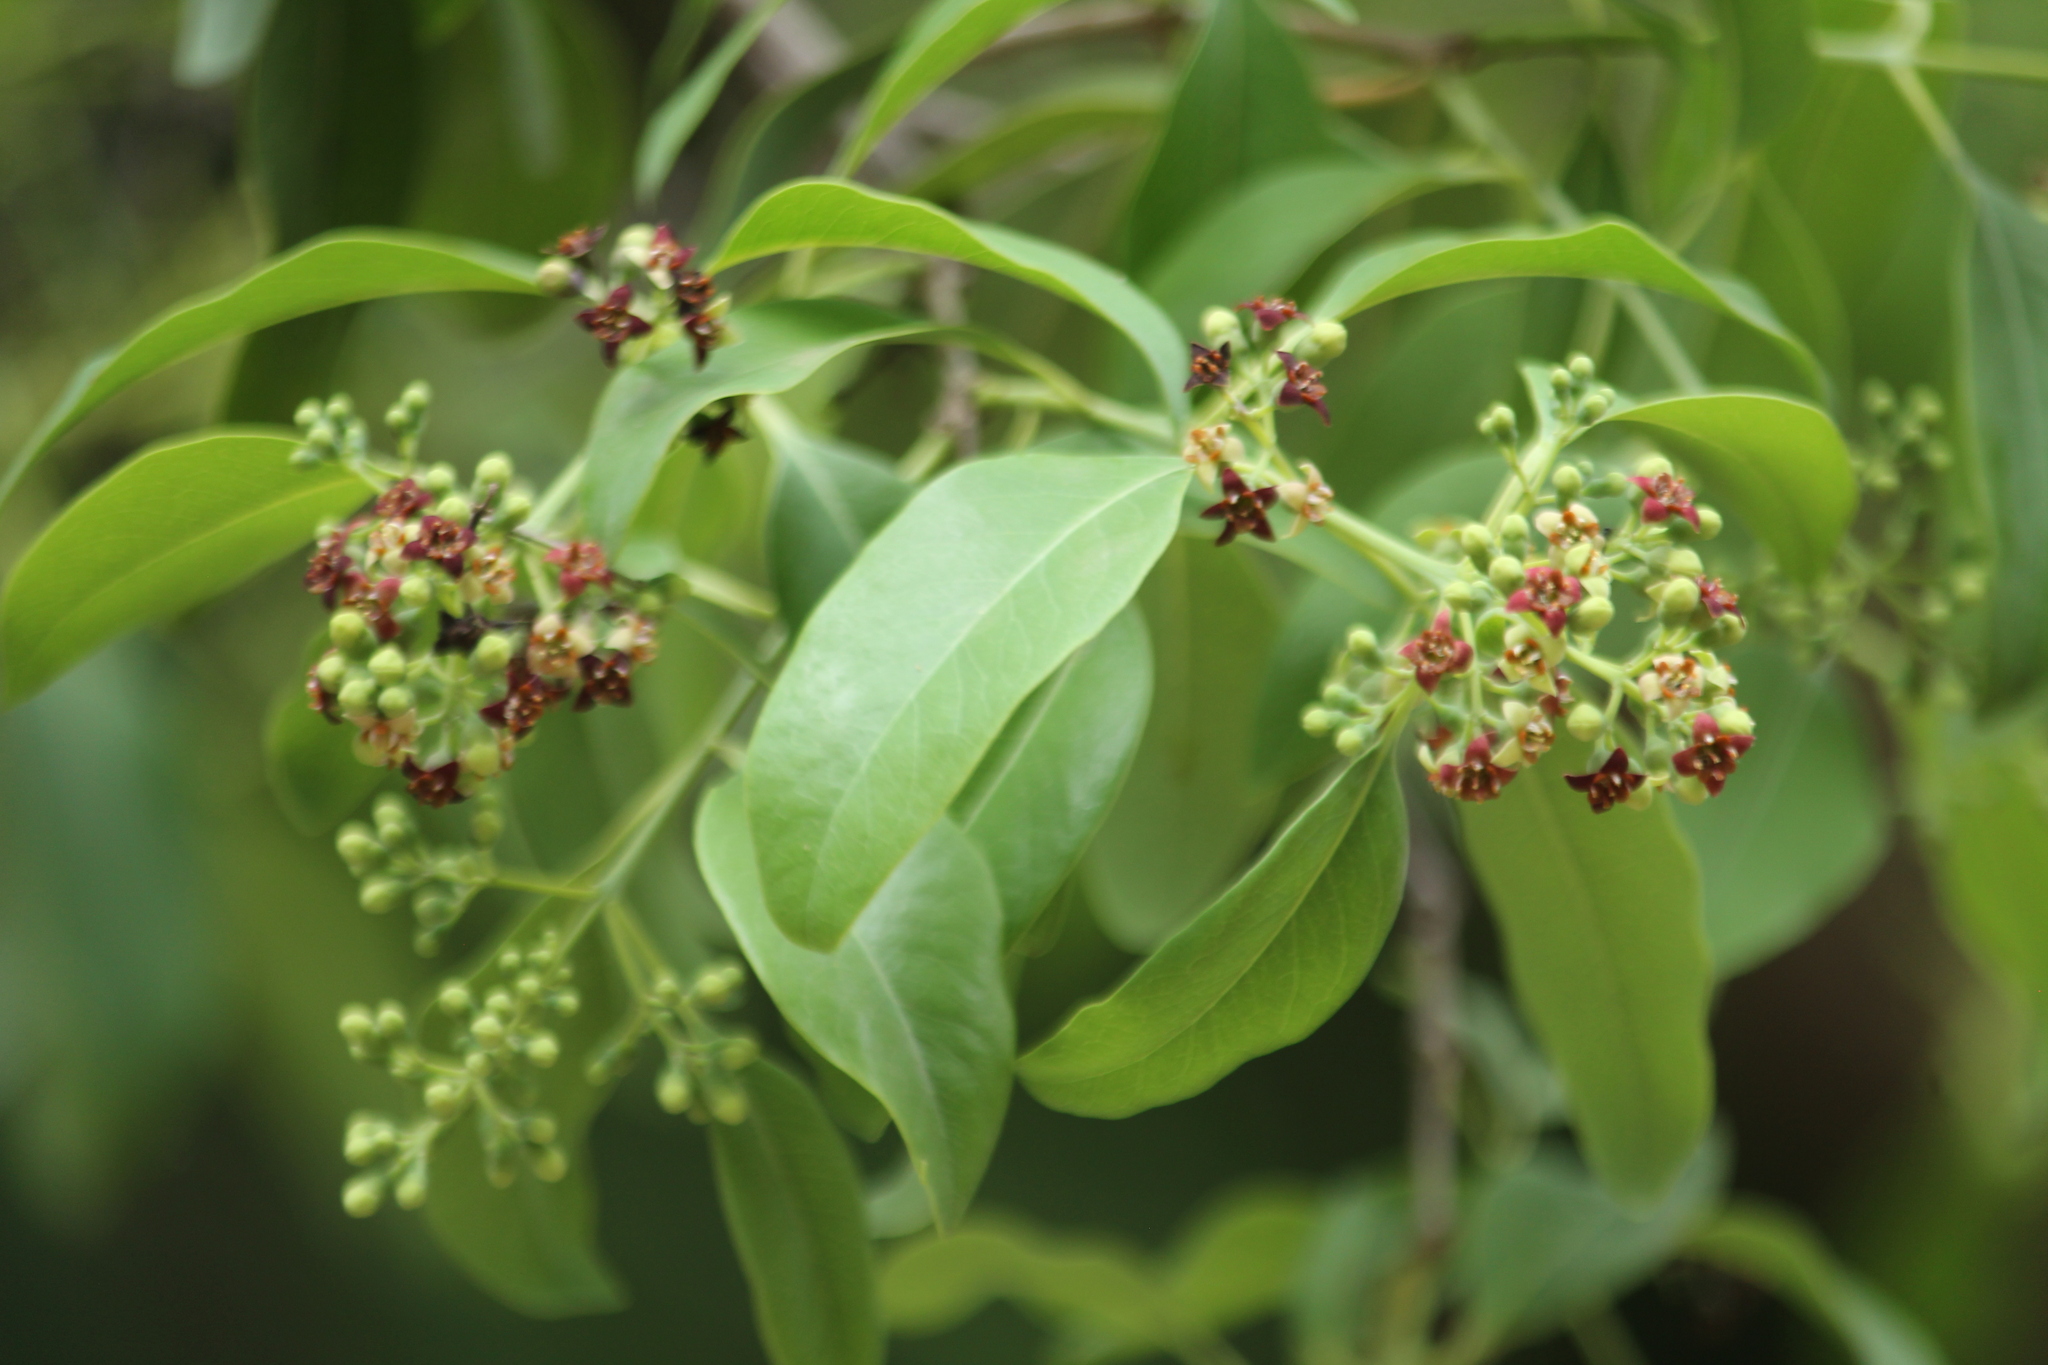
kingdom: Plantae
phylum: Tracheophyta
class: Magnoliopsida
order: Santalales
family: Santalaceae
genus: Santalum
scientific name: Santalum album
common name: Indian sandalwood
